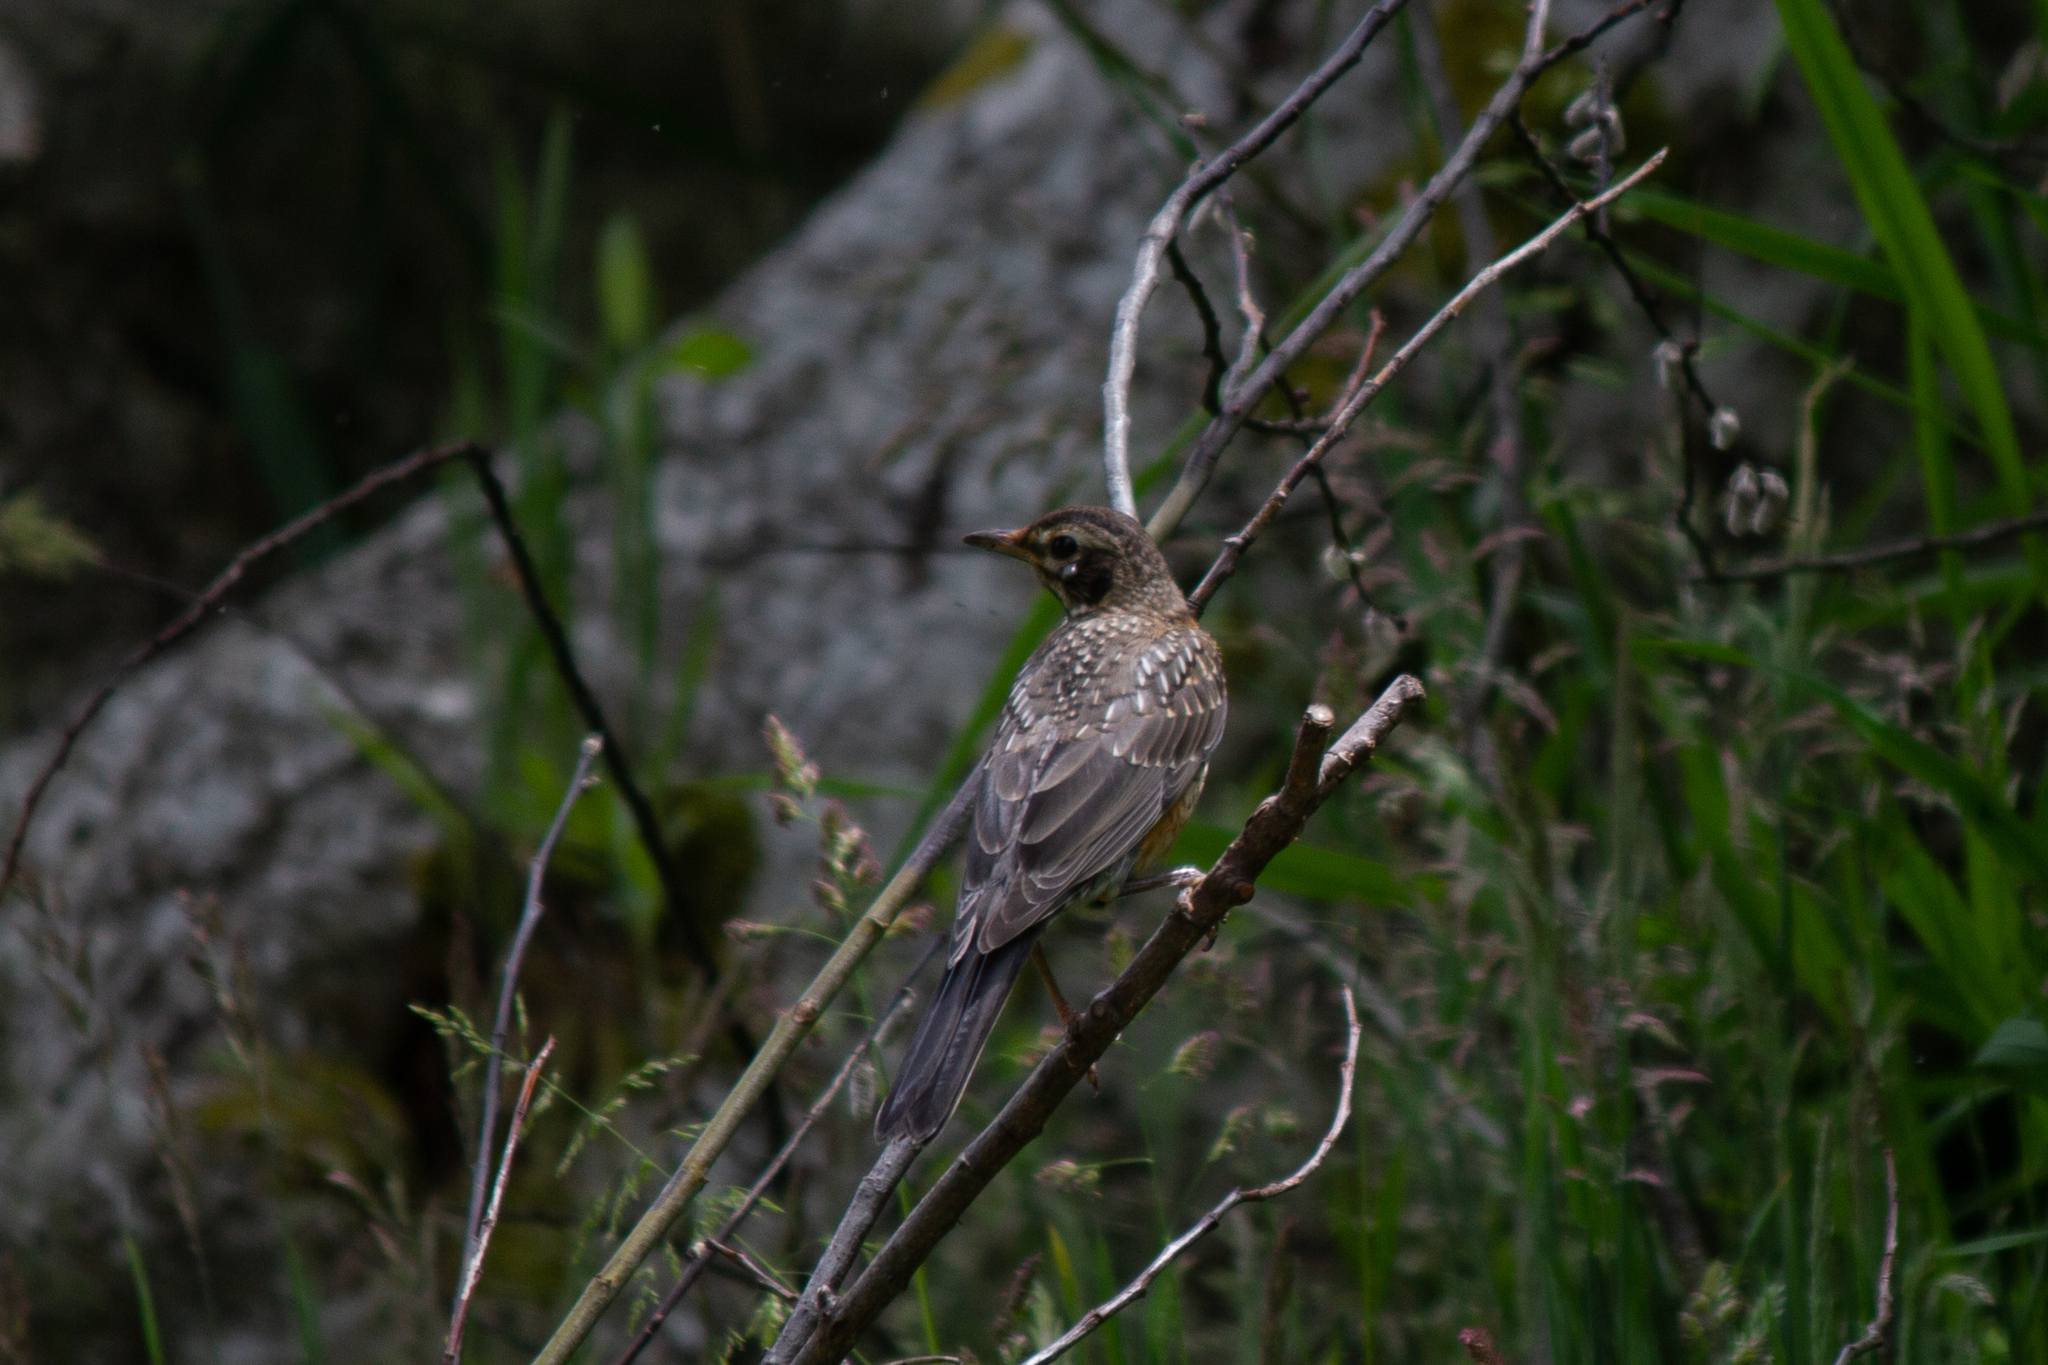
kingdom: Animalia
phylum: Chordata
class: Aves
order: Passeriformes
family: Turdidae
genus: Turdus
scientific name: Turdus migratorius
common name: American robin
